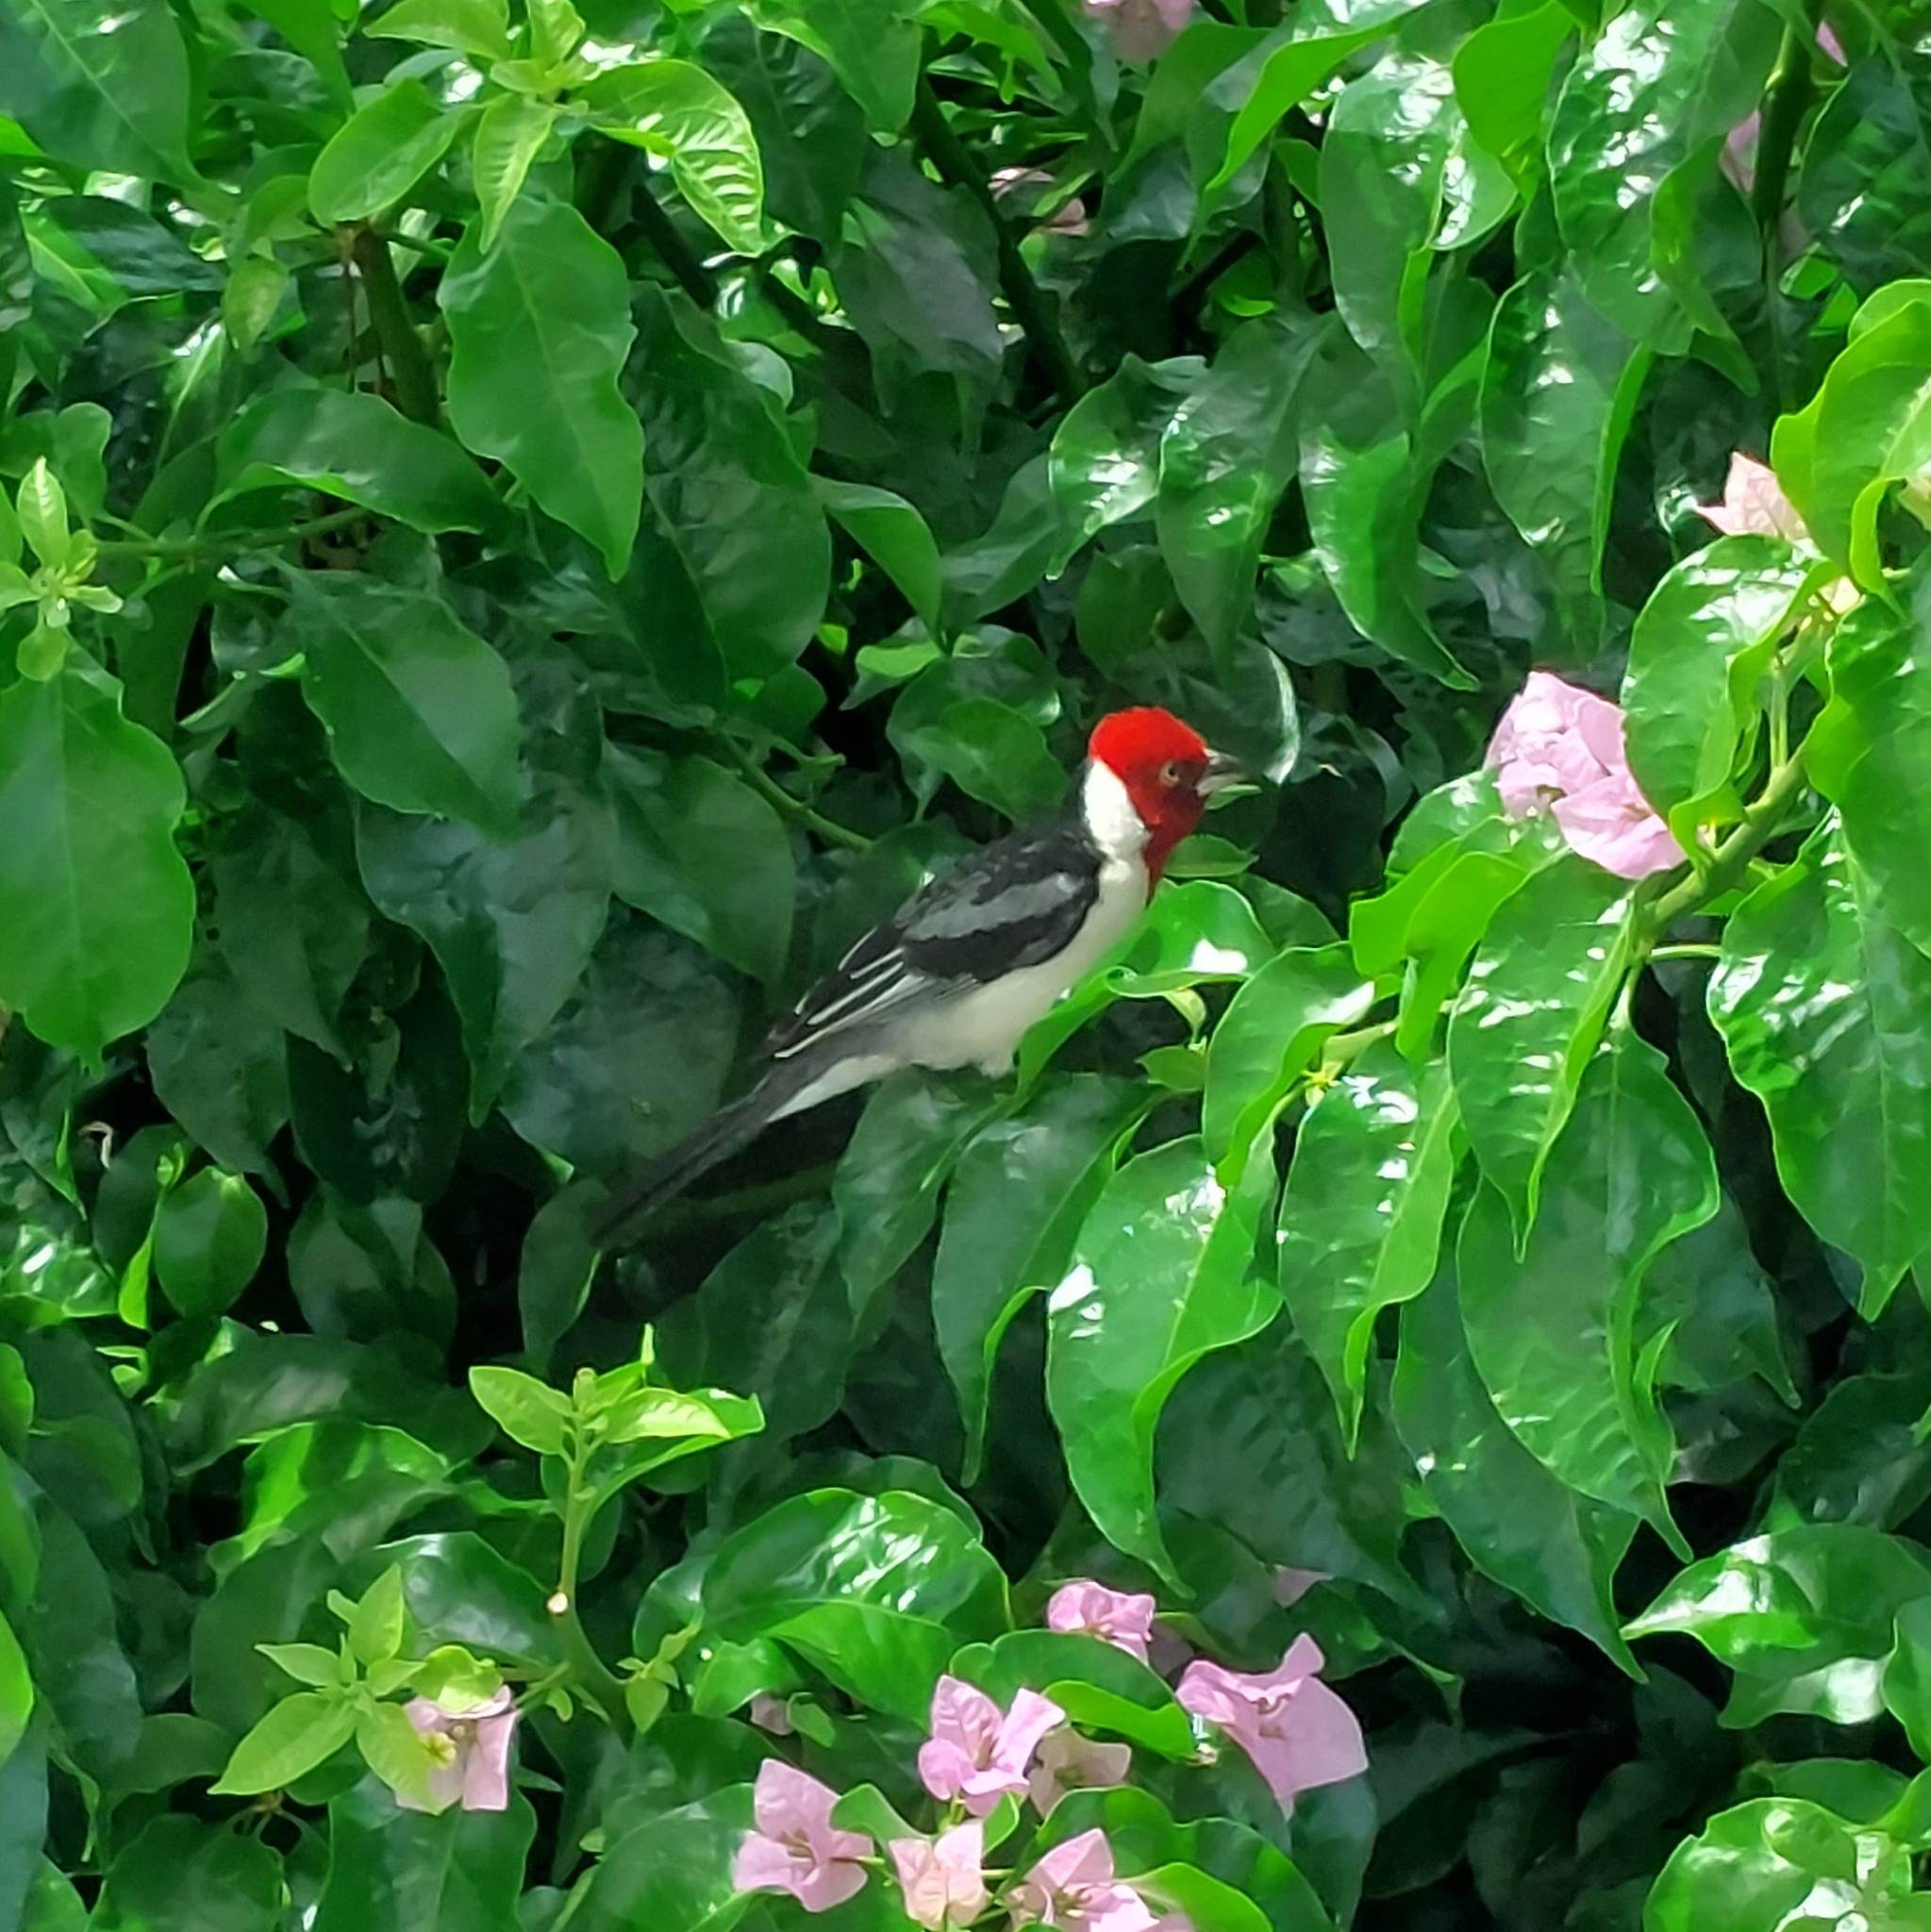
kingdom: Animalia
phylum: Chordata
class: Aves
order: Passeriformes
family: Thraupidae
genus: Paroaria
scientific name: Paroaria dominicana
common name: Red-cowled cardinal
